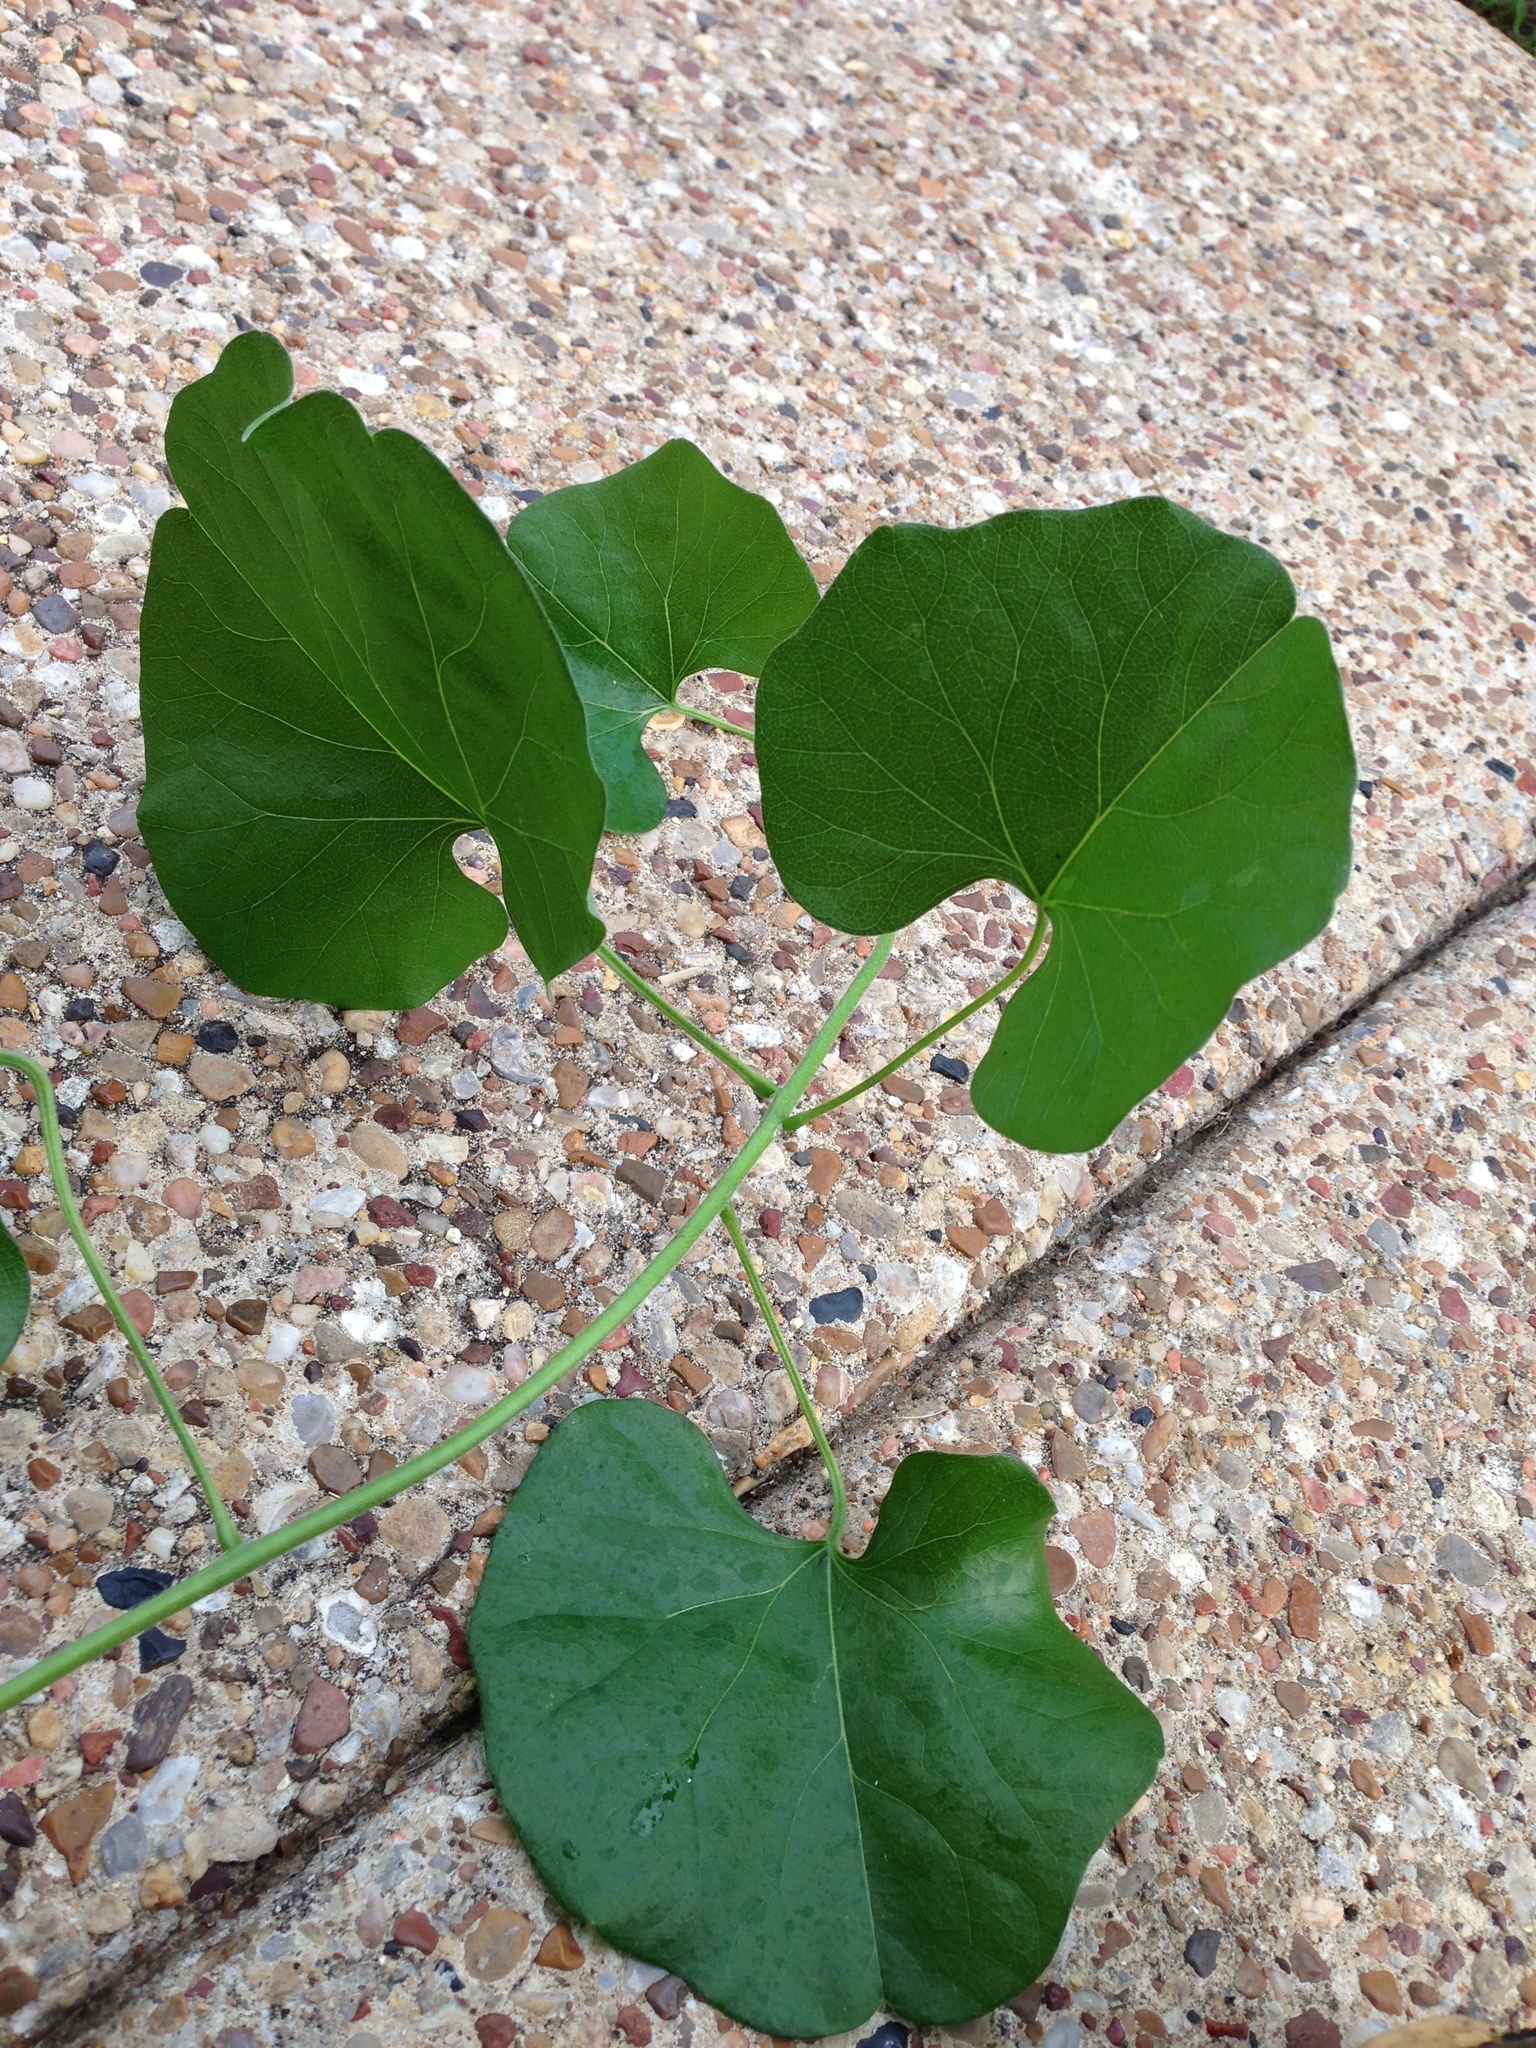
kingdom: Plantae
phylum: Tracheophyta
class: Magnoliopsida
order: Ranunculales
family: Menispermaceae
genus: Cocculus
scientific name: Cocculus carolinus
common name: Carolina moonseed
